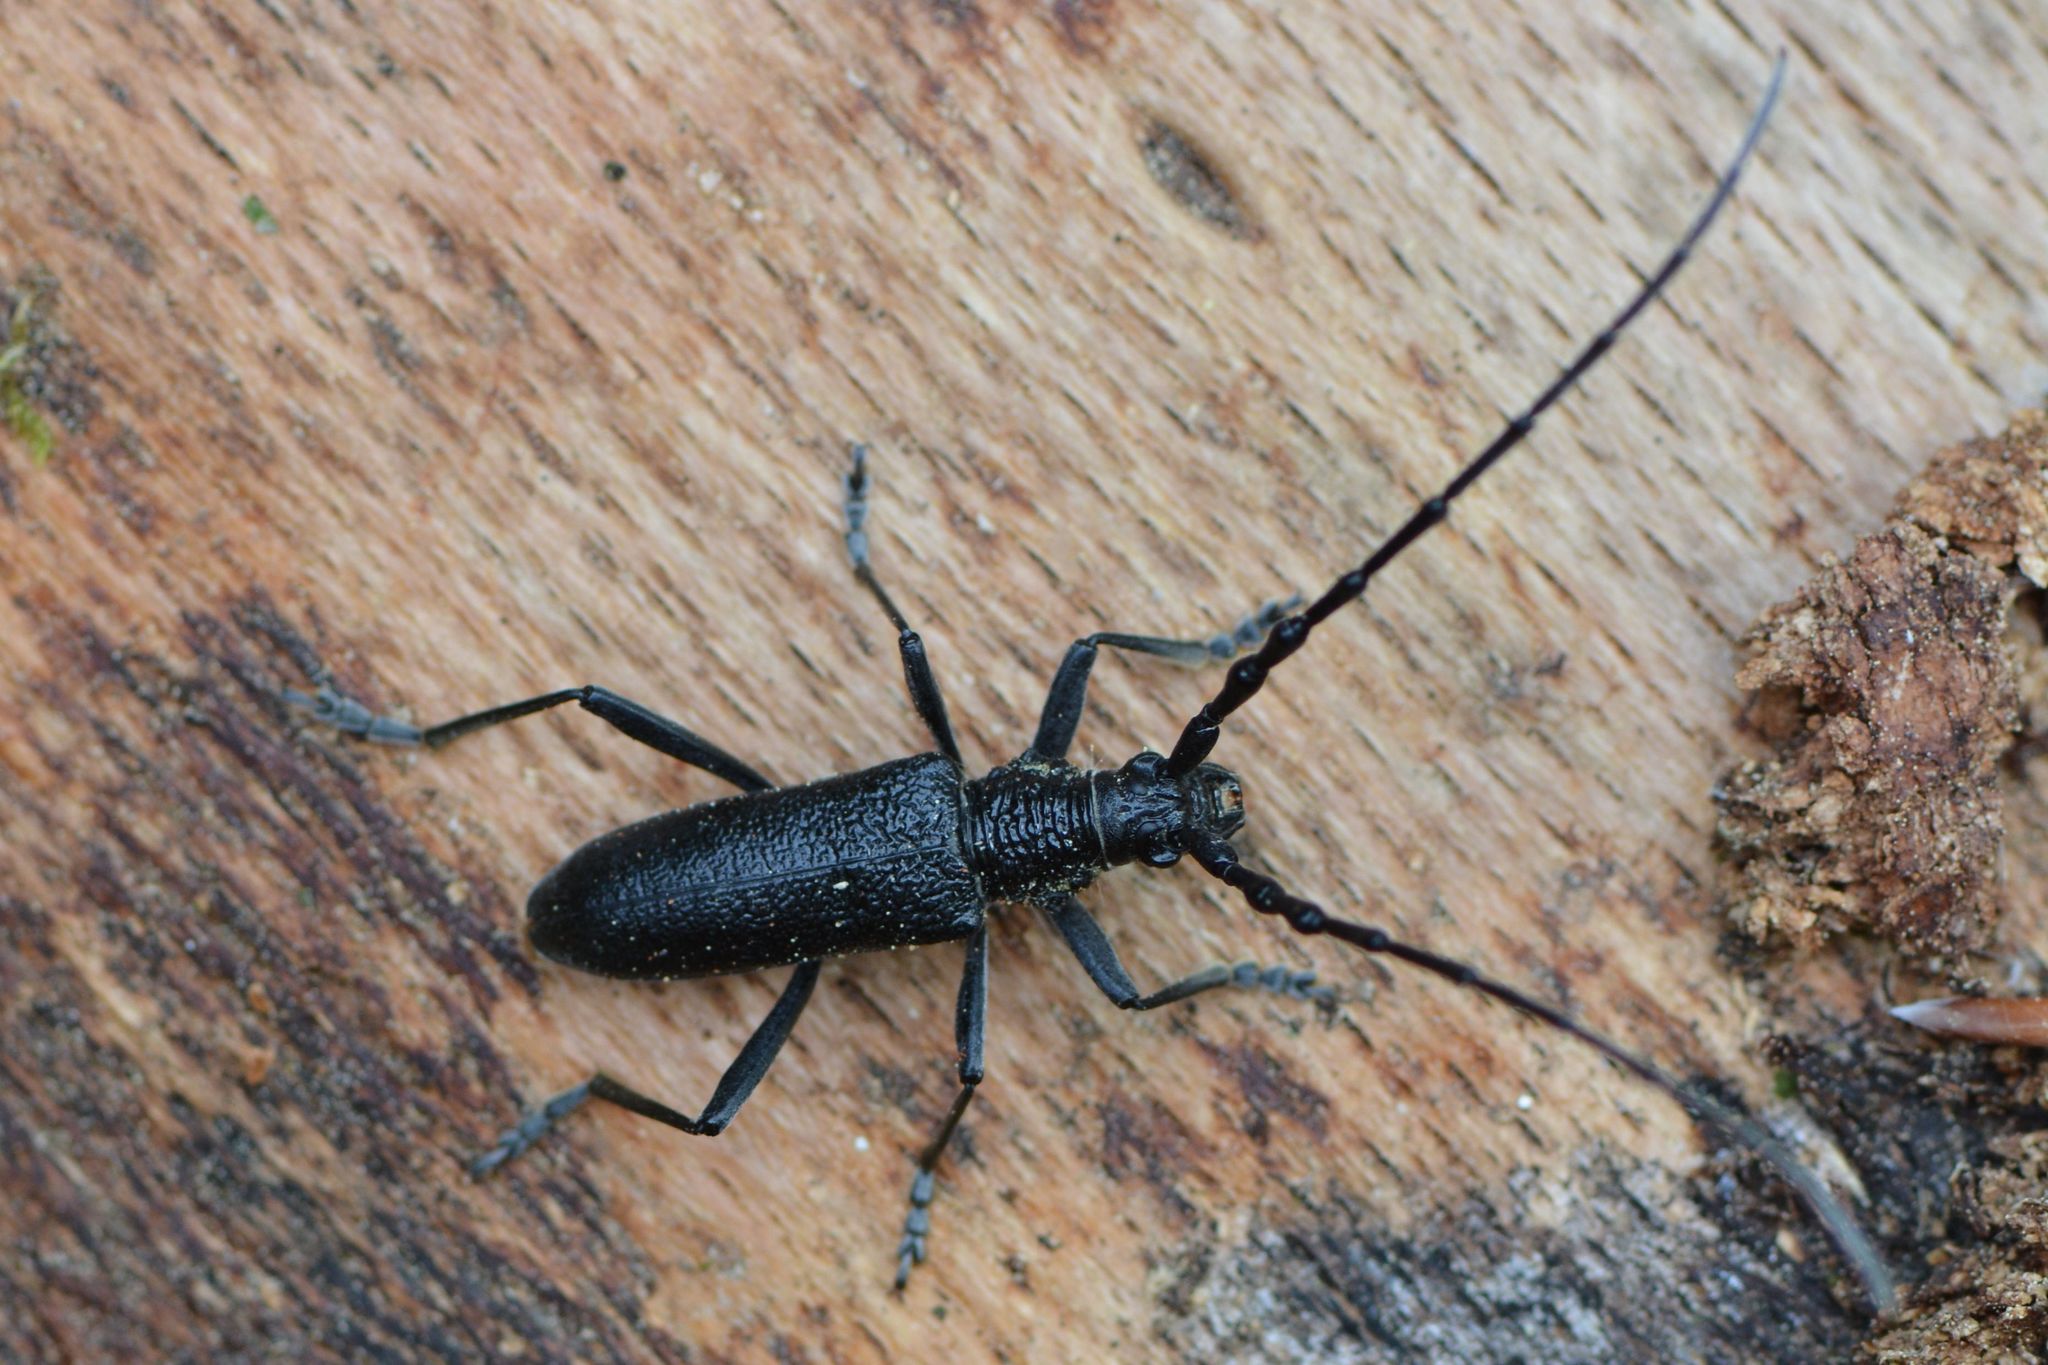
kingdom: Animalia
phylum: Arthropoda
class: Insecta
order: Coleoptera
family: Cerambycidae
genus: Cerambyx
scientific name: Cerambyx scopolii
